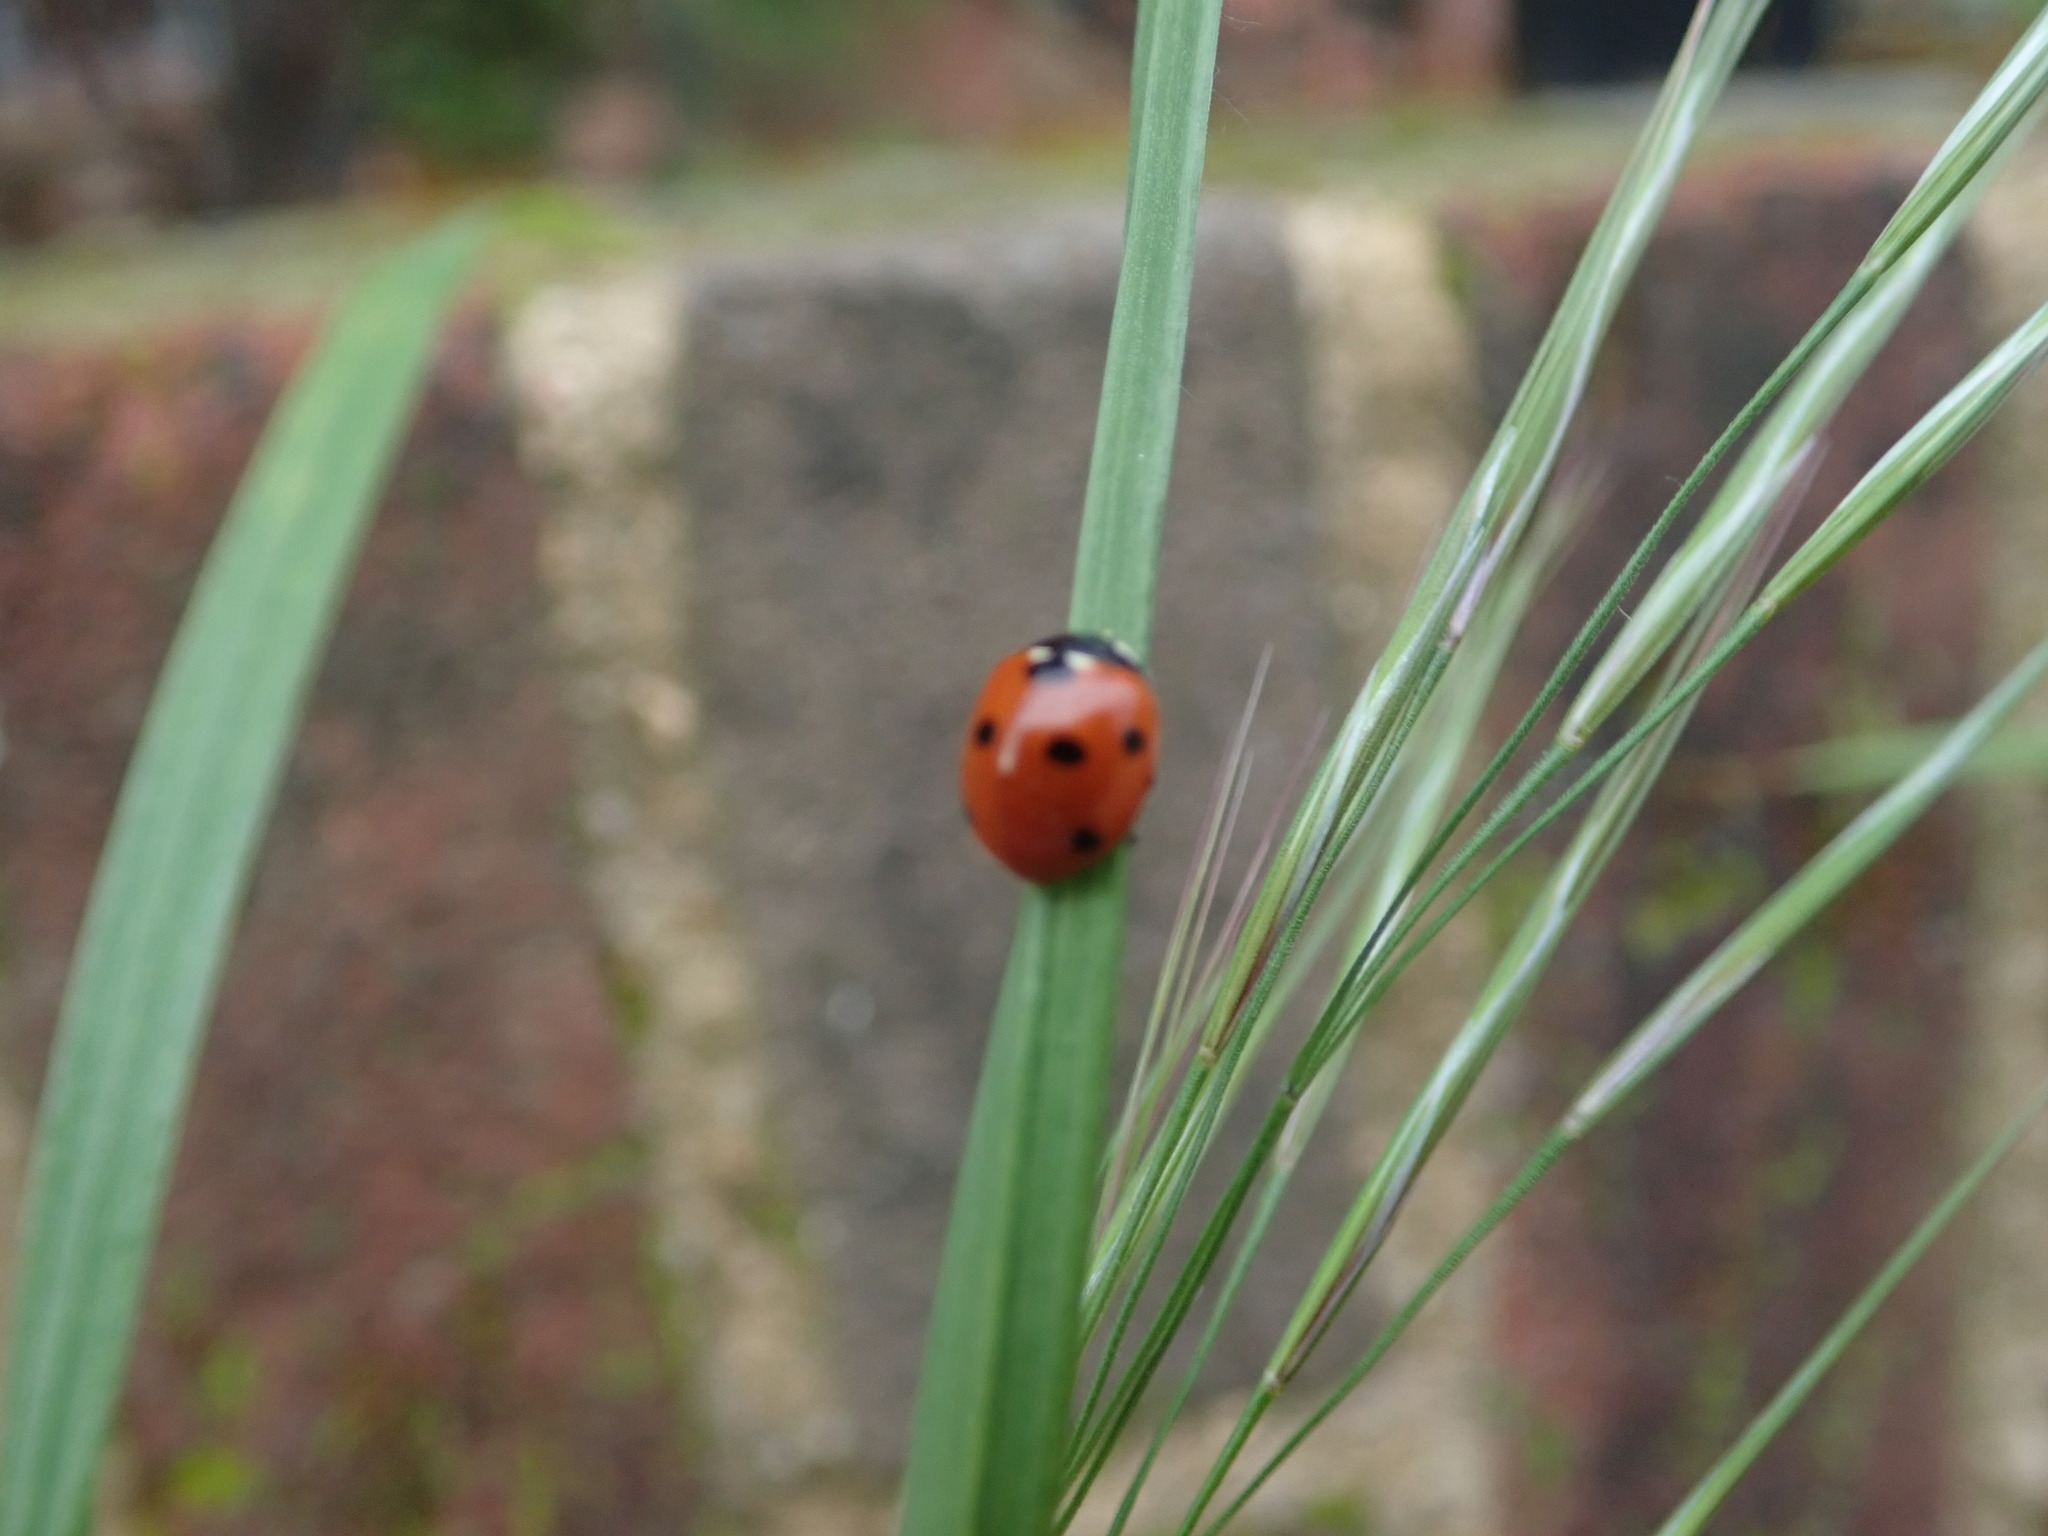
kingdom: Animalia
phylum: Arthropoda
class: Insecta
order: Coleoptera
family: Coccinellidae
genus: Coccinella
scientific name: Coccinella septempunctata
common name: Sevenspotted lady beetle
